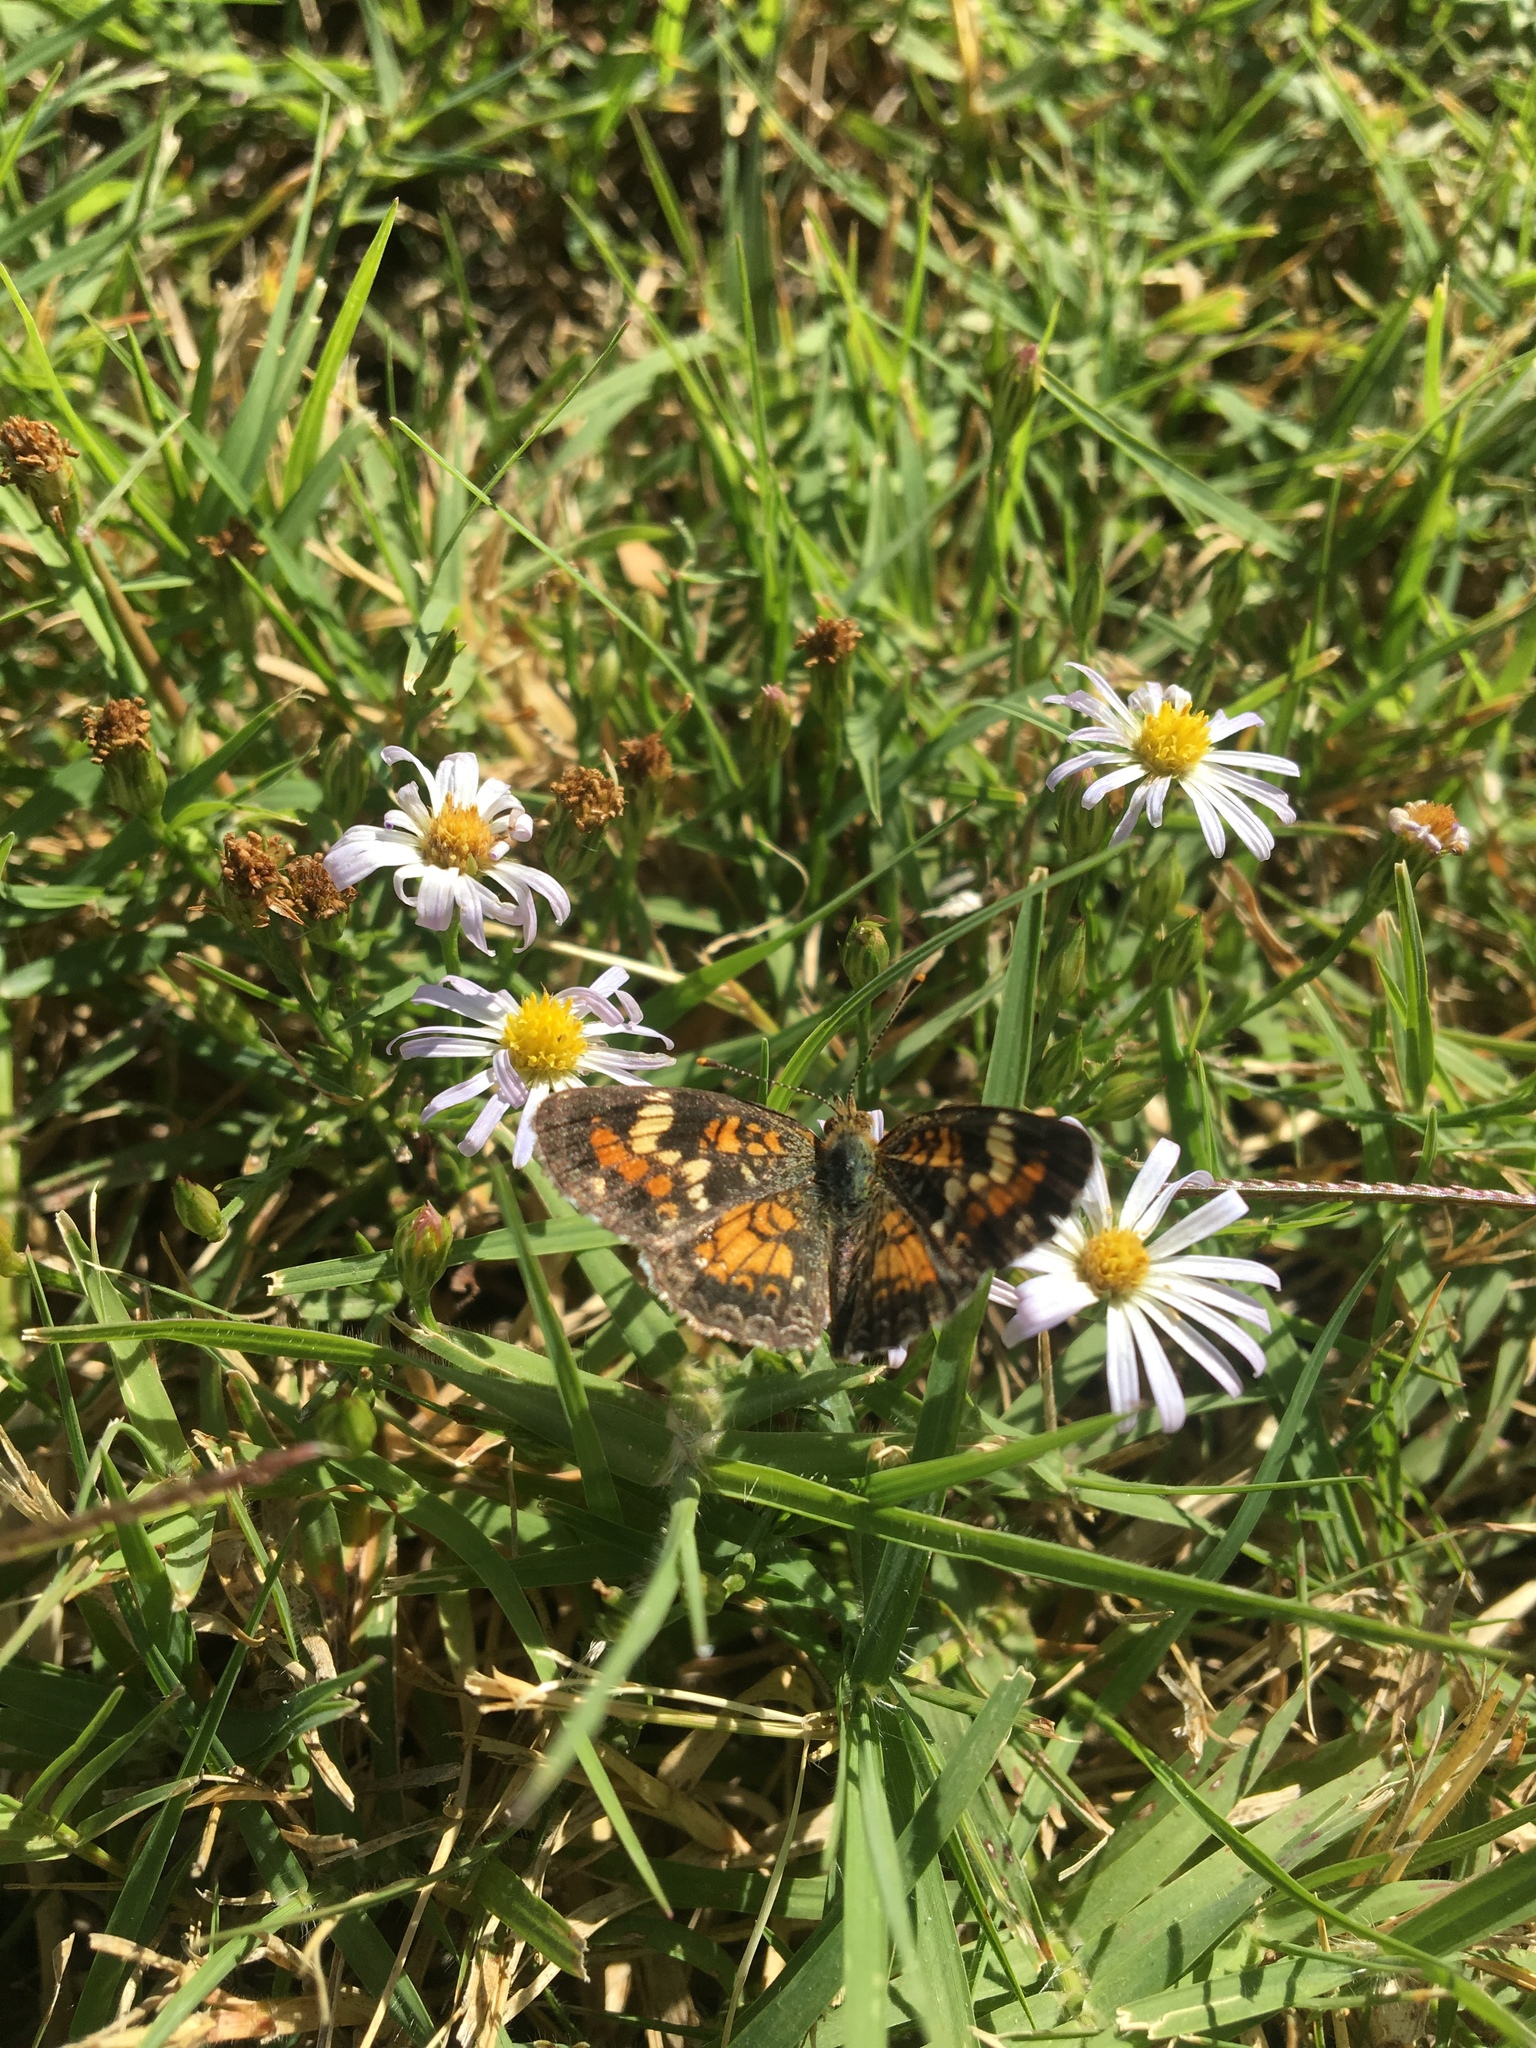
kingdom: Animalia
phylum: Arthropoda
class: Insecta
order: Lepidoptera
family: Nymphalidae
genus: Phyciodes
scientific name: Phyciodes phaon
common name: Phaon crescent
